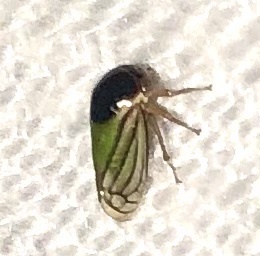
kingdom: Animalia
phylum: Arthropoda
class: Insecta
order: Hemiptera
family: Membracidae
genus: Acutalis
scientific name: Acutalis tartarea
